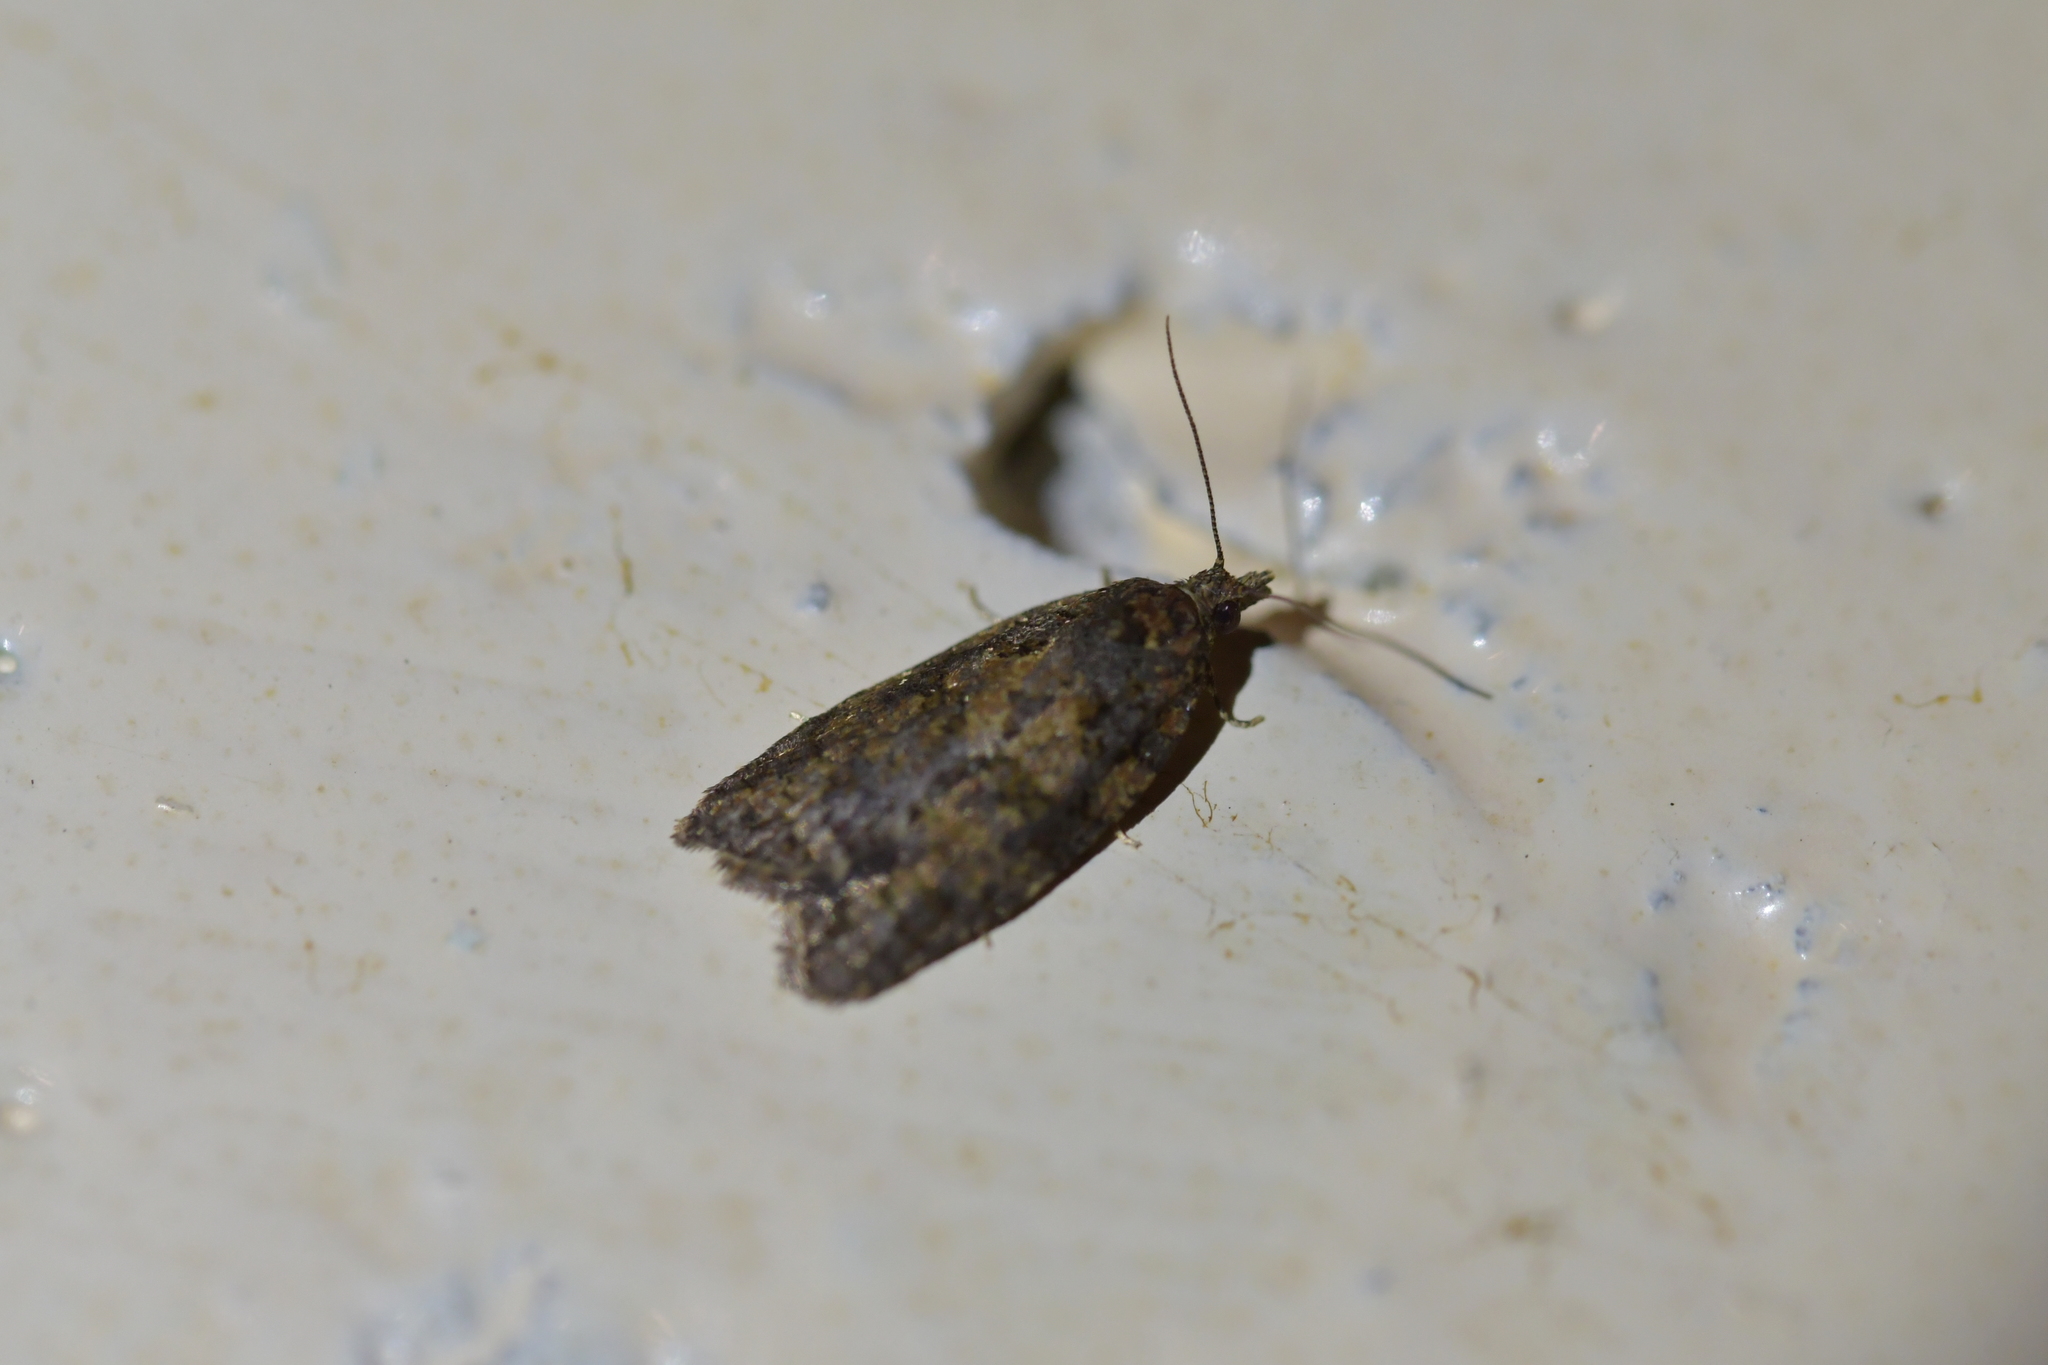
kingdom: Animalia
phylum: Arthropoda
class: Insecta
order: Lepidoptera
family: Tortricidae
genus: Capua
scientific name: Capua intractana
